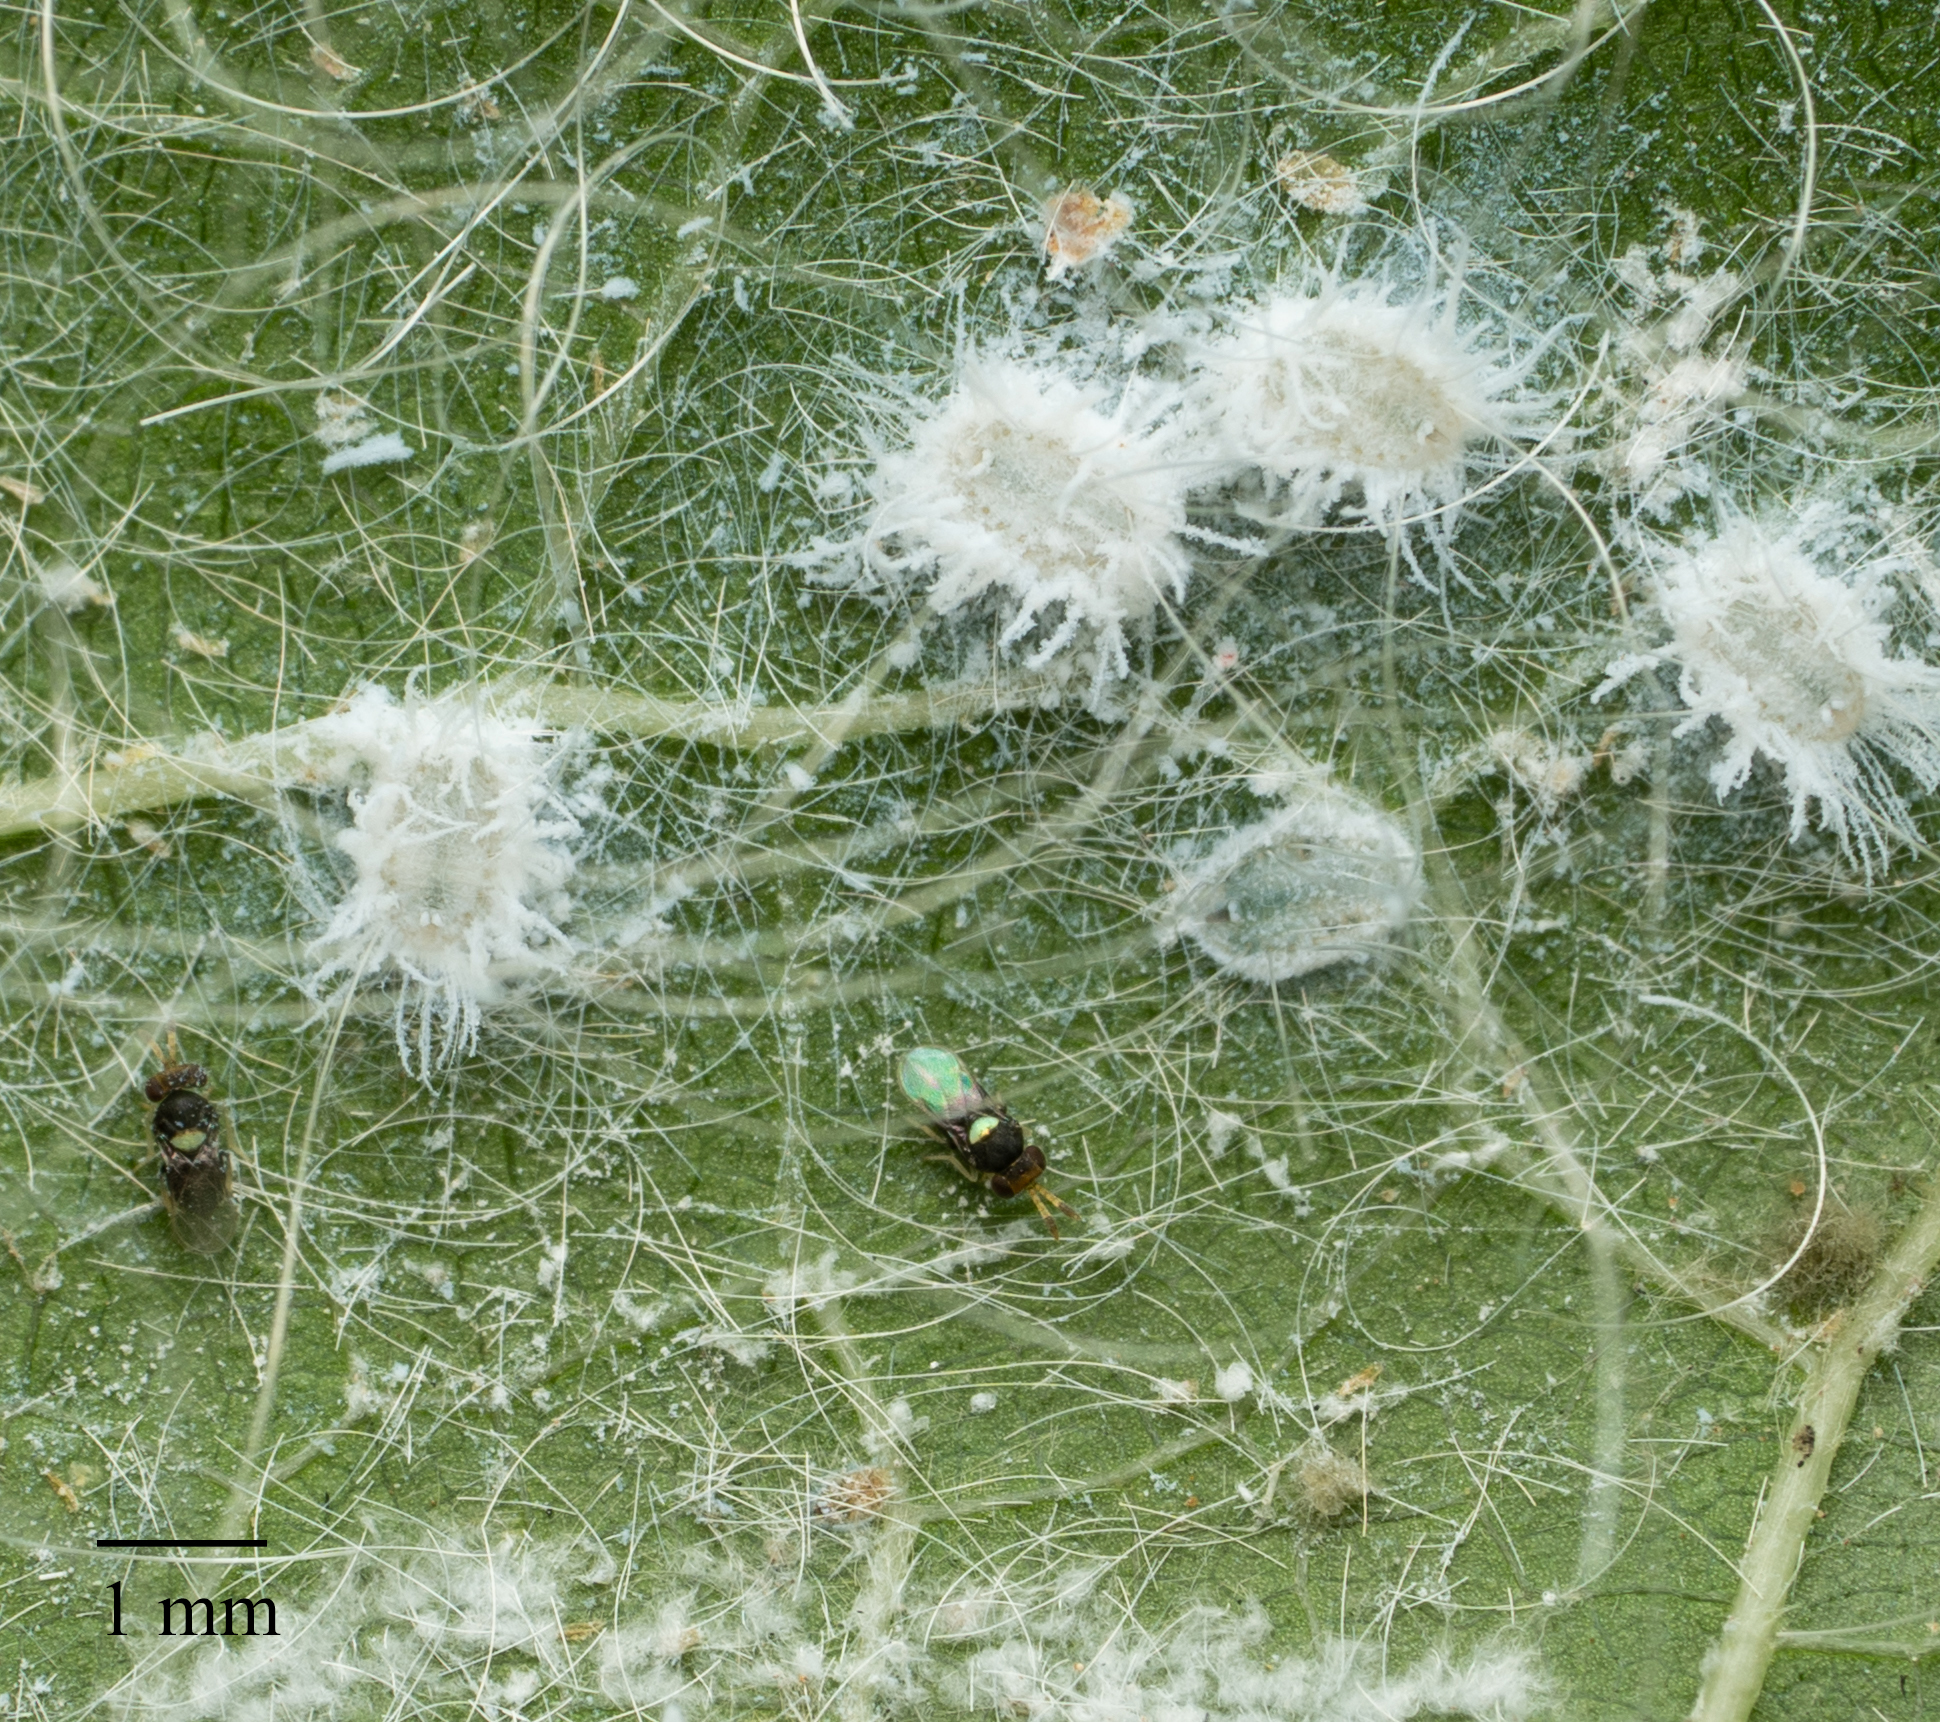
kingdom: Animalia
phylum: Arthropoda
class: Insecta
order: Hymenoptera
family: Aphelinidae
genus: Encarsiella
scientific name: Encarsiella noyesi
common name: Parasitoid wasp
